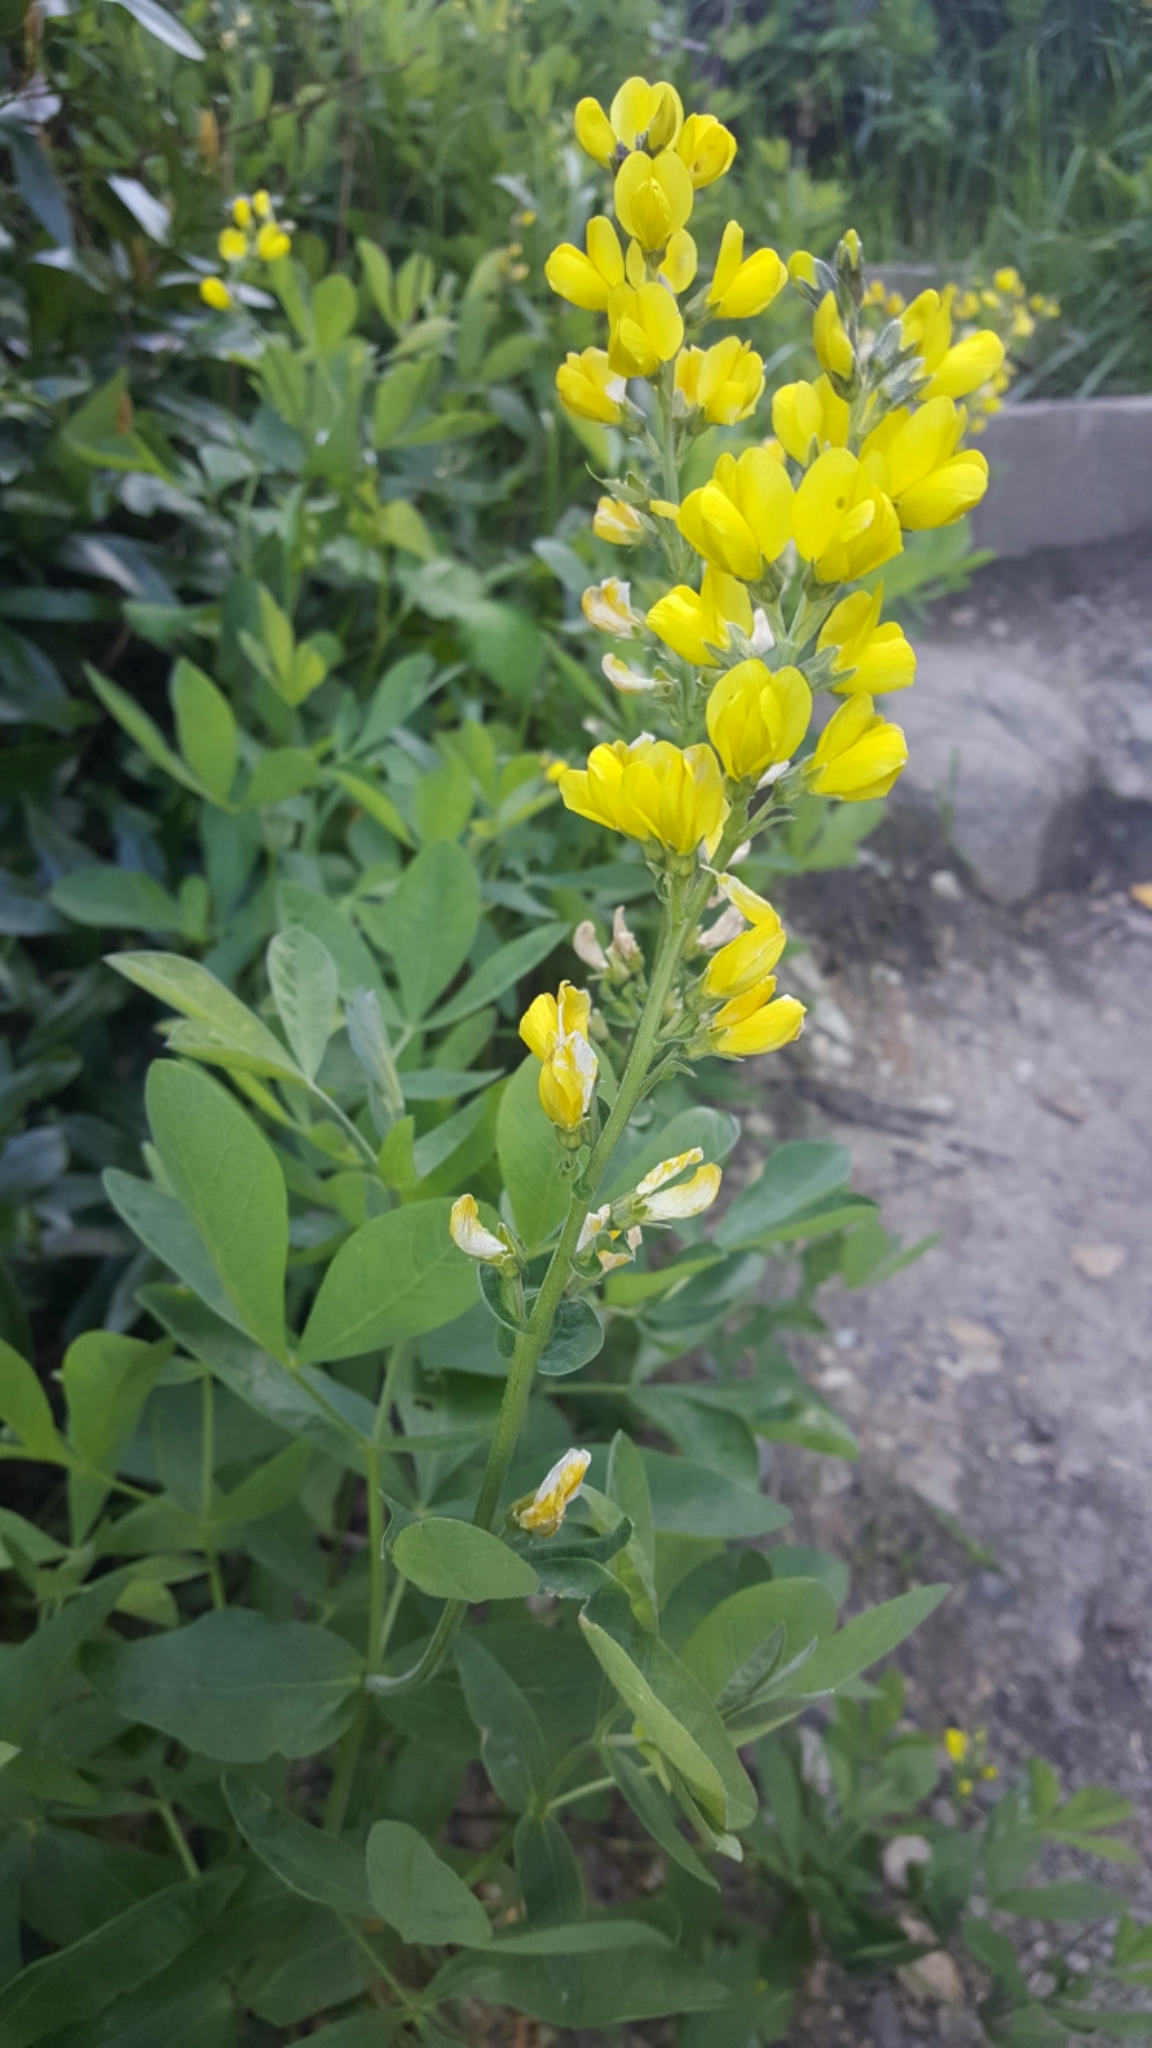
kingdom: Plantae
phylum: Tracheophyta
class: Magnoliopsida
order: Fabales
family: Fabaceae
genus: Thermopsis
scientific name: Thermopsis californica
